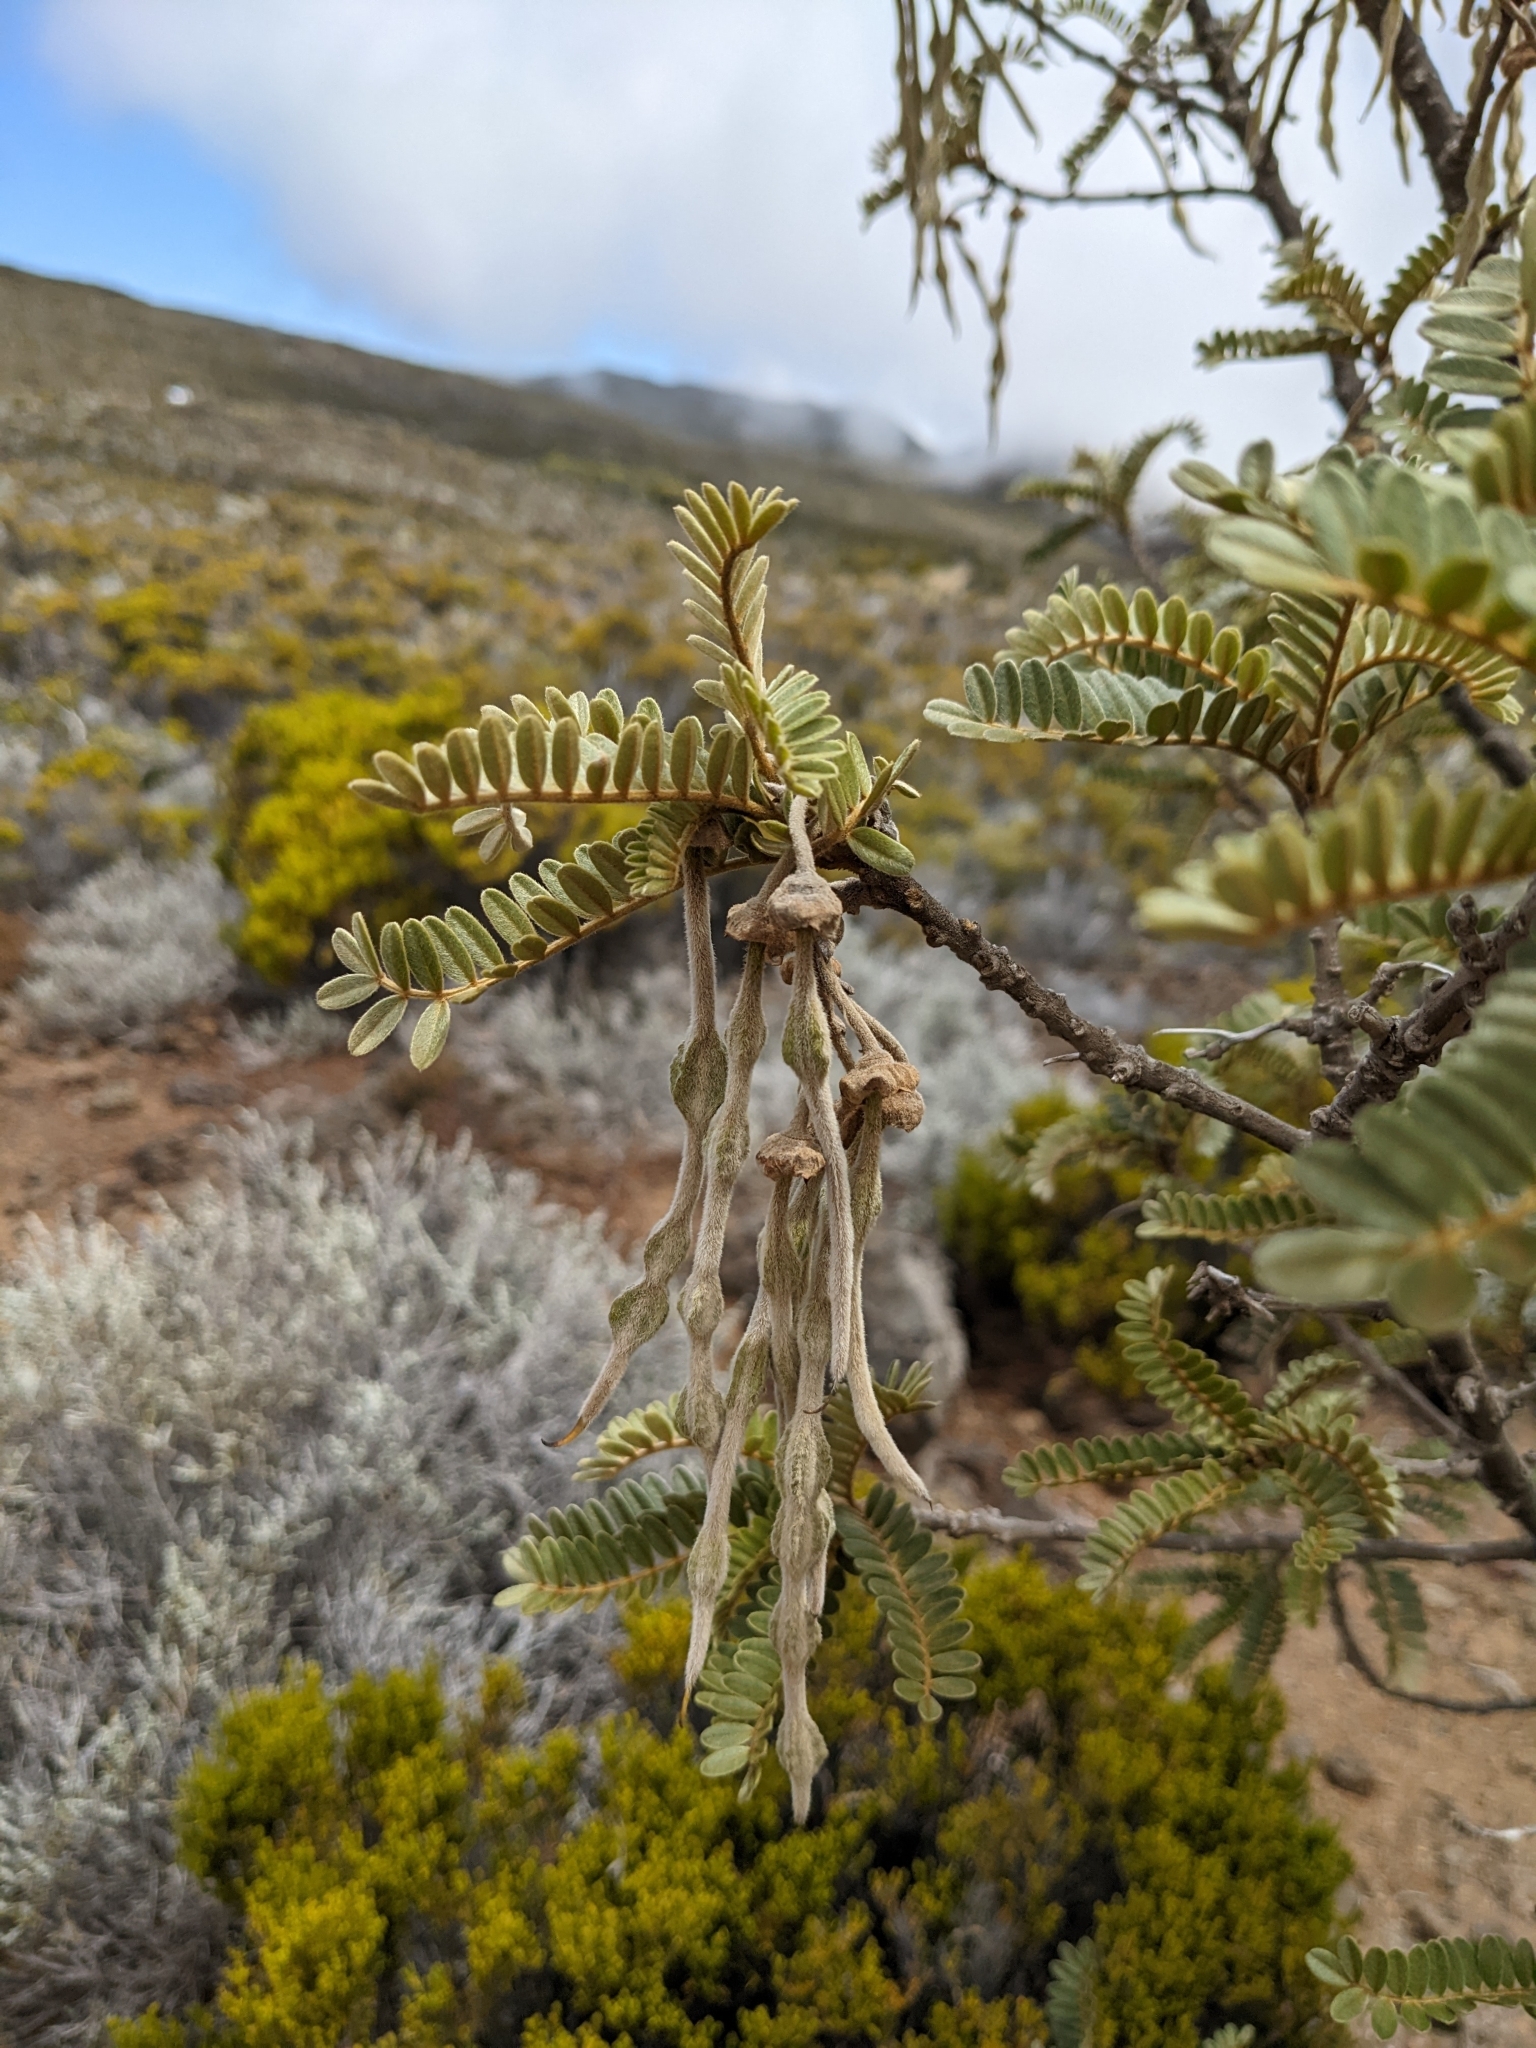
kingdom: Plantae
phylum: Tracheophyta
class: Magnoliopsida
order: Fabales
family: Fabaceae
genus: Sophora
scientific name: Sophora denudata
